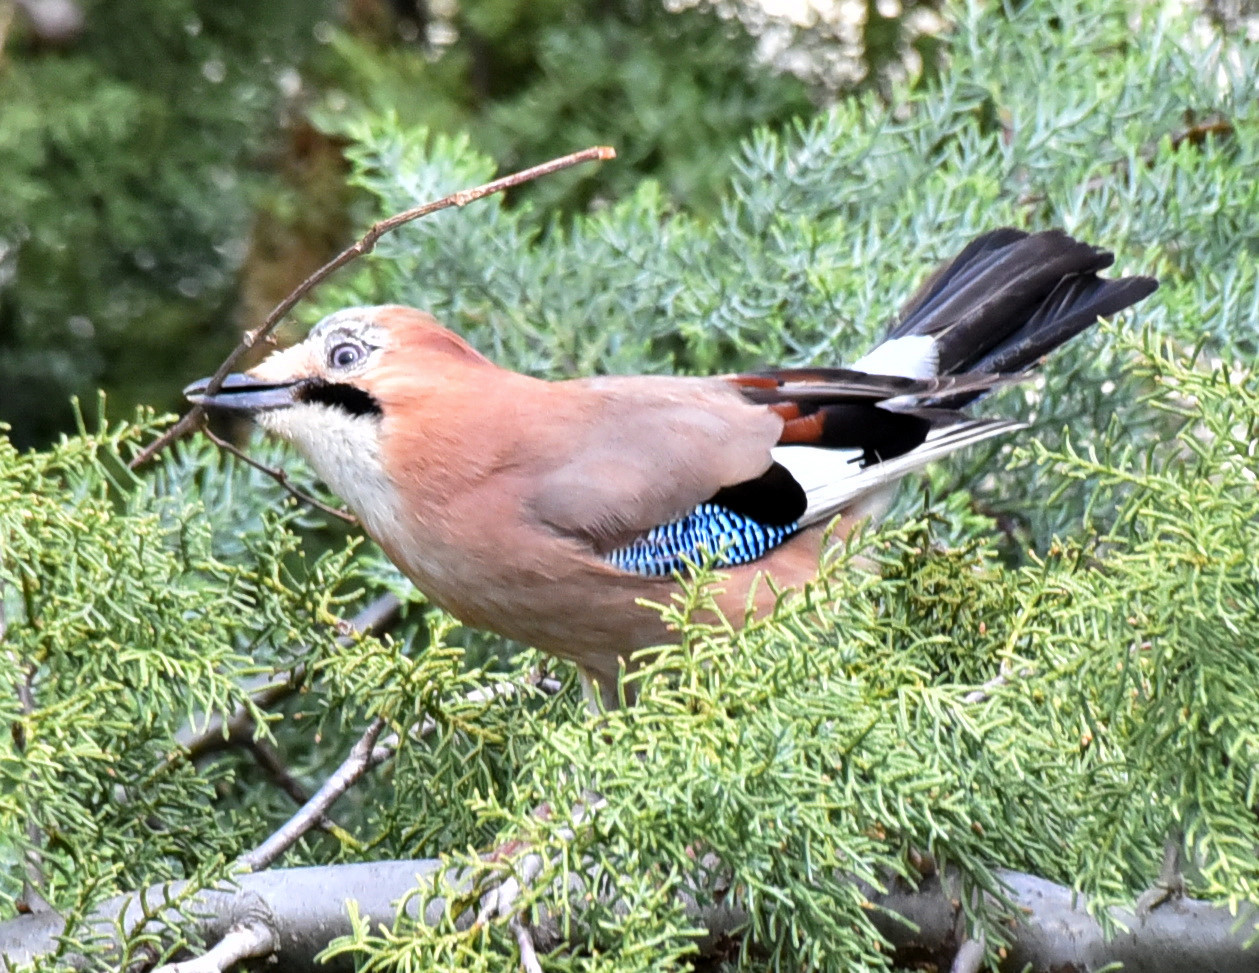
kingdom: Animalia
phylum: Chordata
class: Aves
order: Passeriformes
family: Corvidae
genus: Garrulus
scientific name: Garrulus glandarius
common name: Eurasian jay
